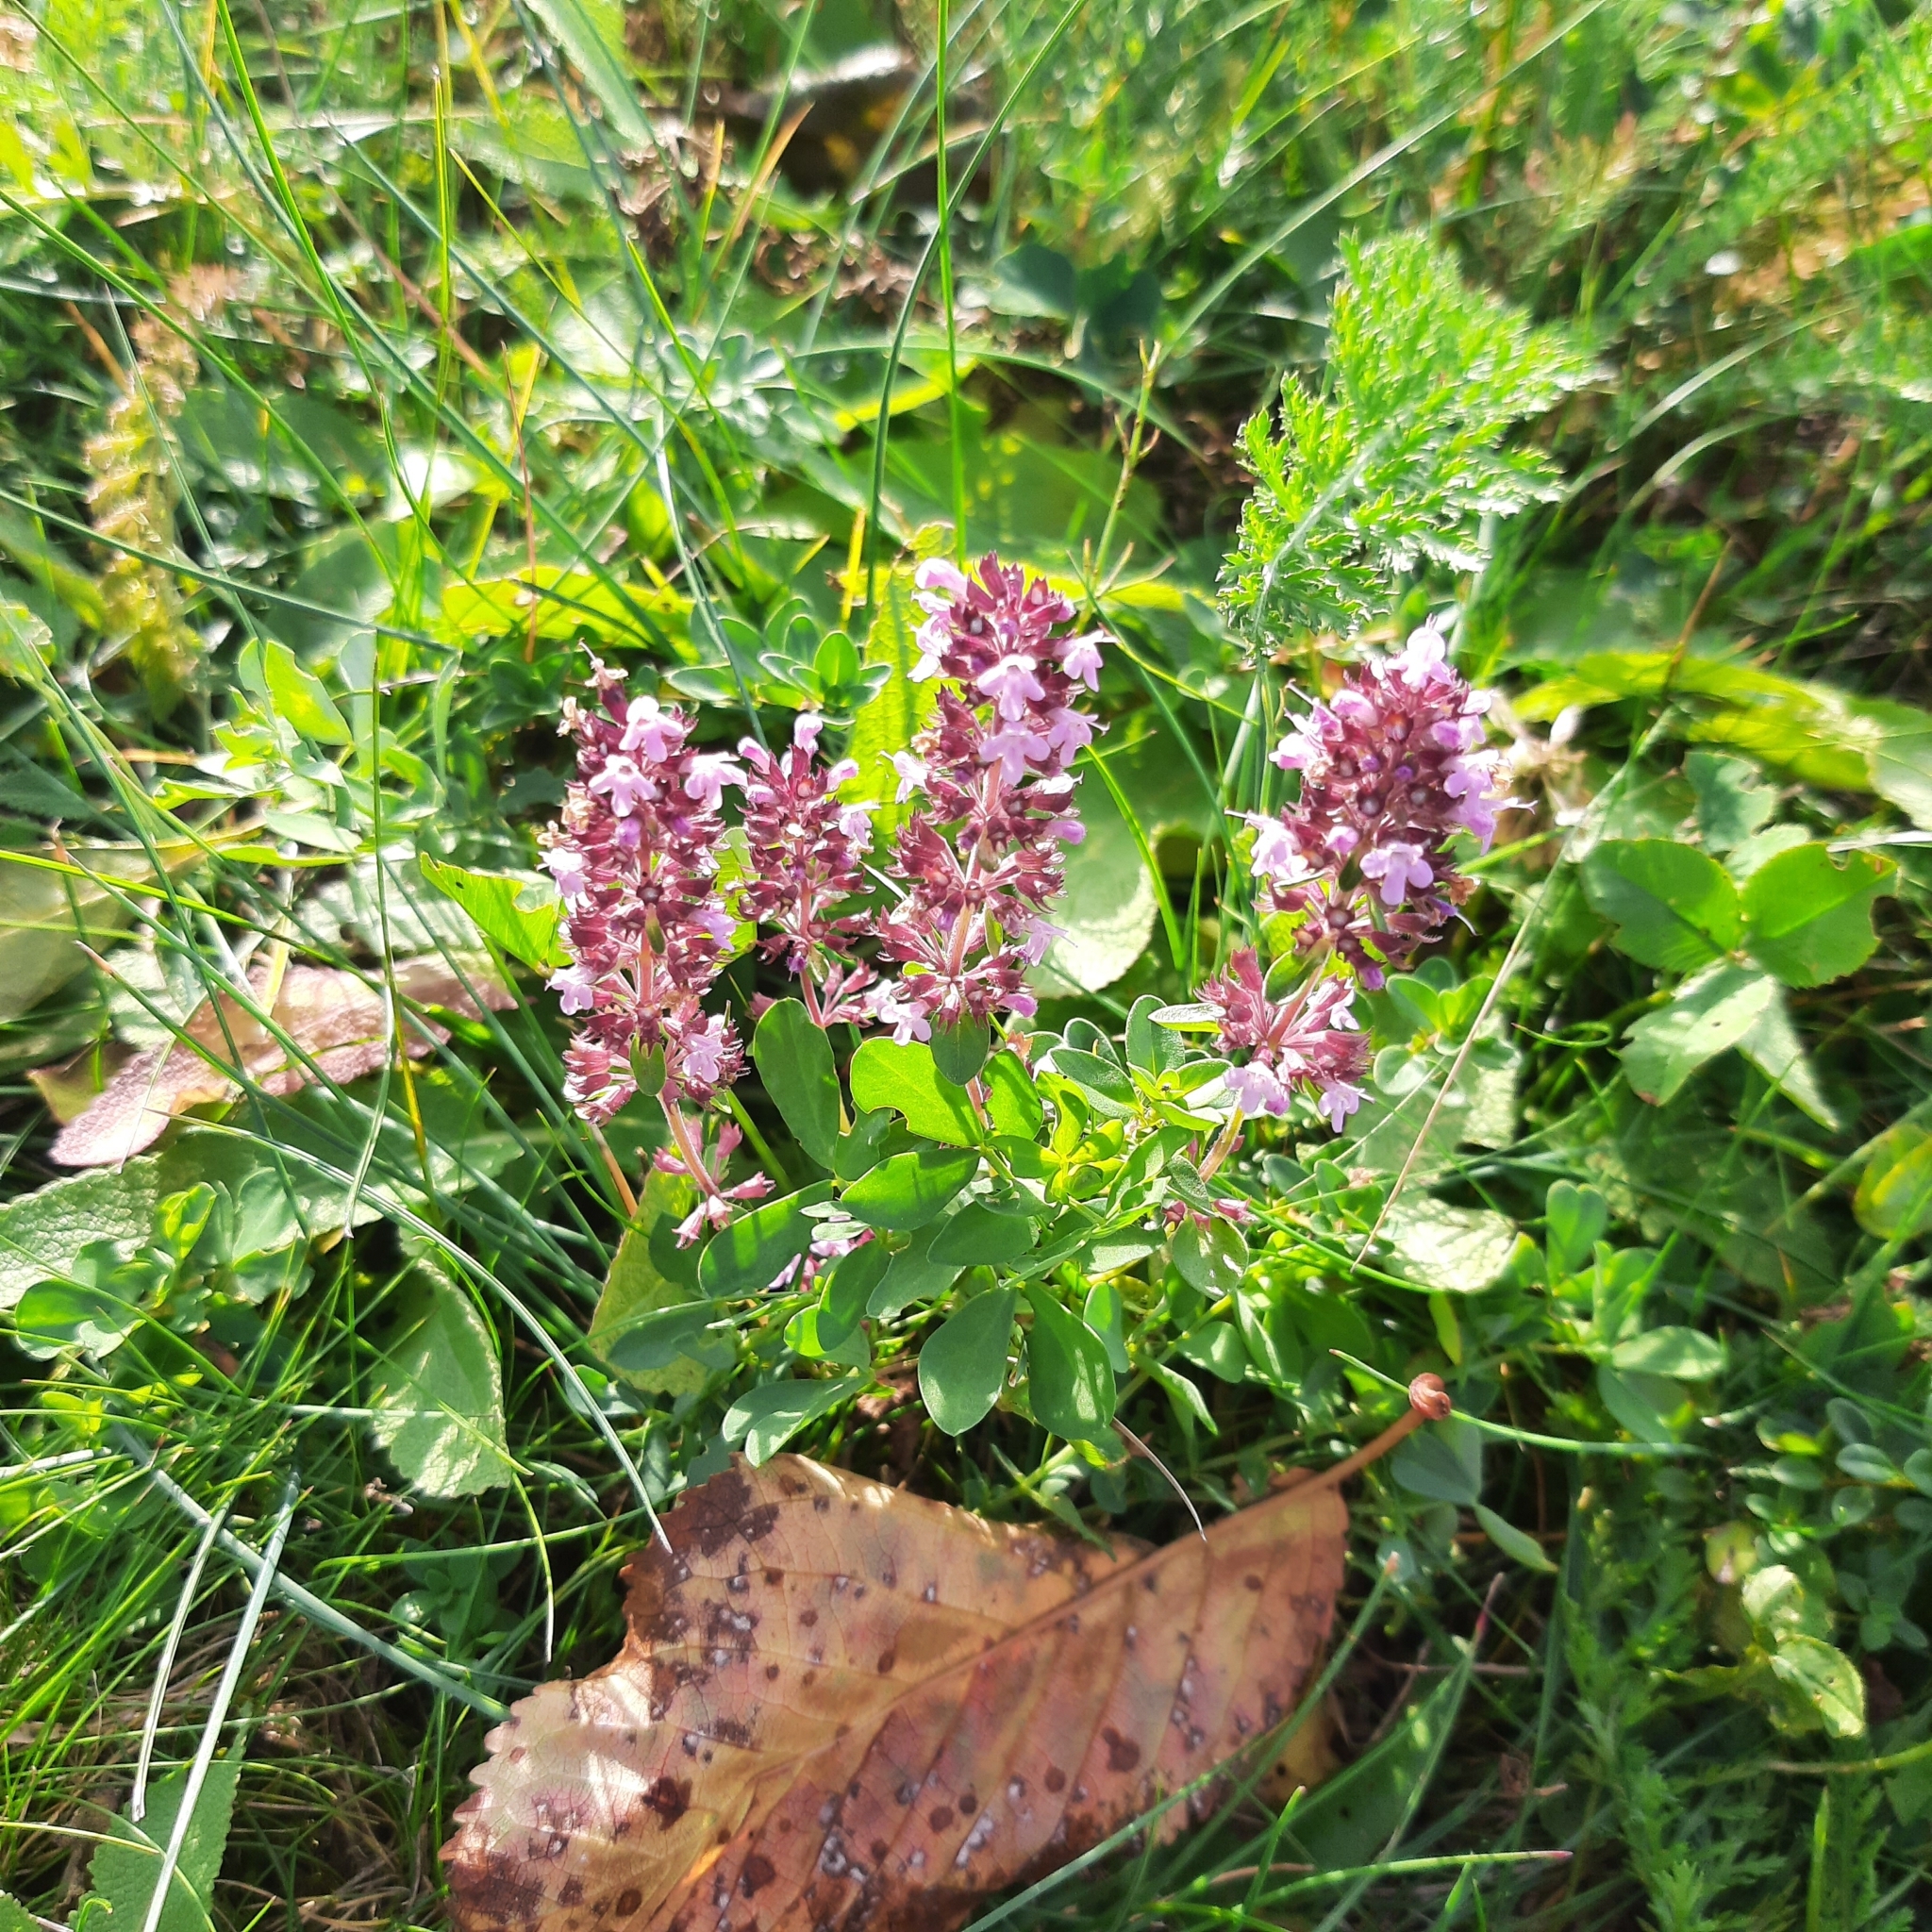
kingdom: Plantae
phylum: Tracheophyta
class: Magnoliopsida
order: Lamiales
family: Lamiaceae
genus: Thymus
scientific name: Thymus
